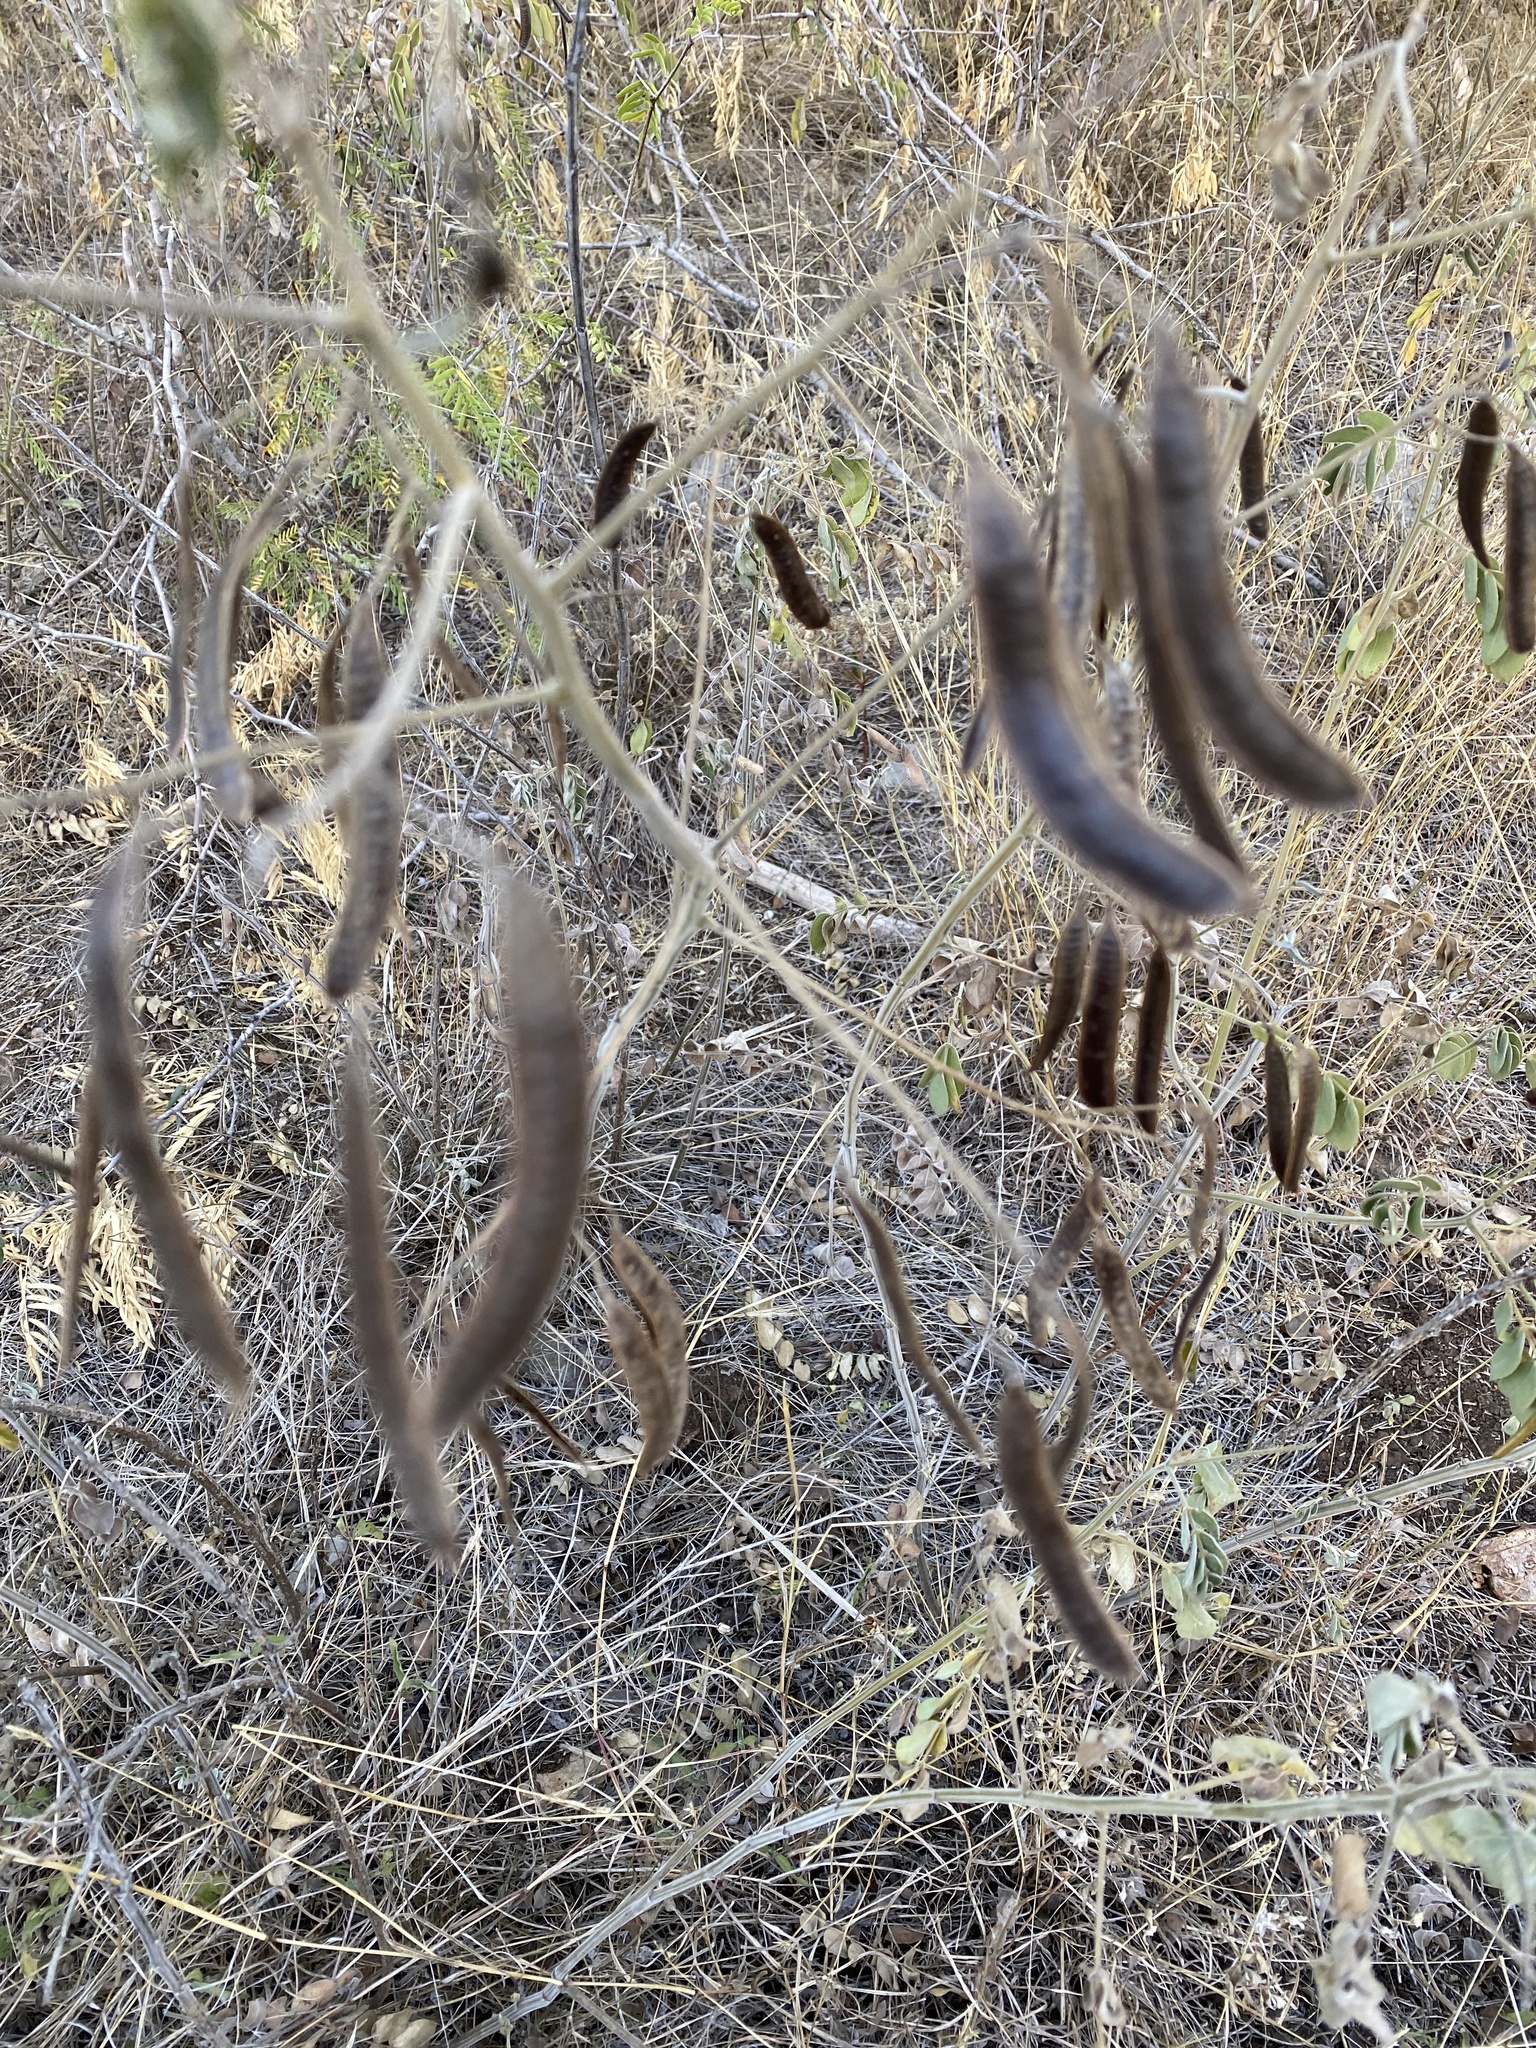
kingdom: Plantae
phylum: Tracheophyta
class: Magnoliopsida
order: Fabales
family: Fabaceae
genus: Senna
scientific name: Senna lindheimeriana
